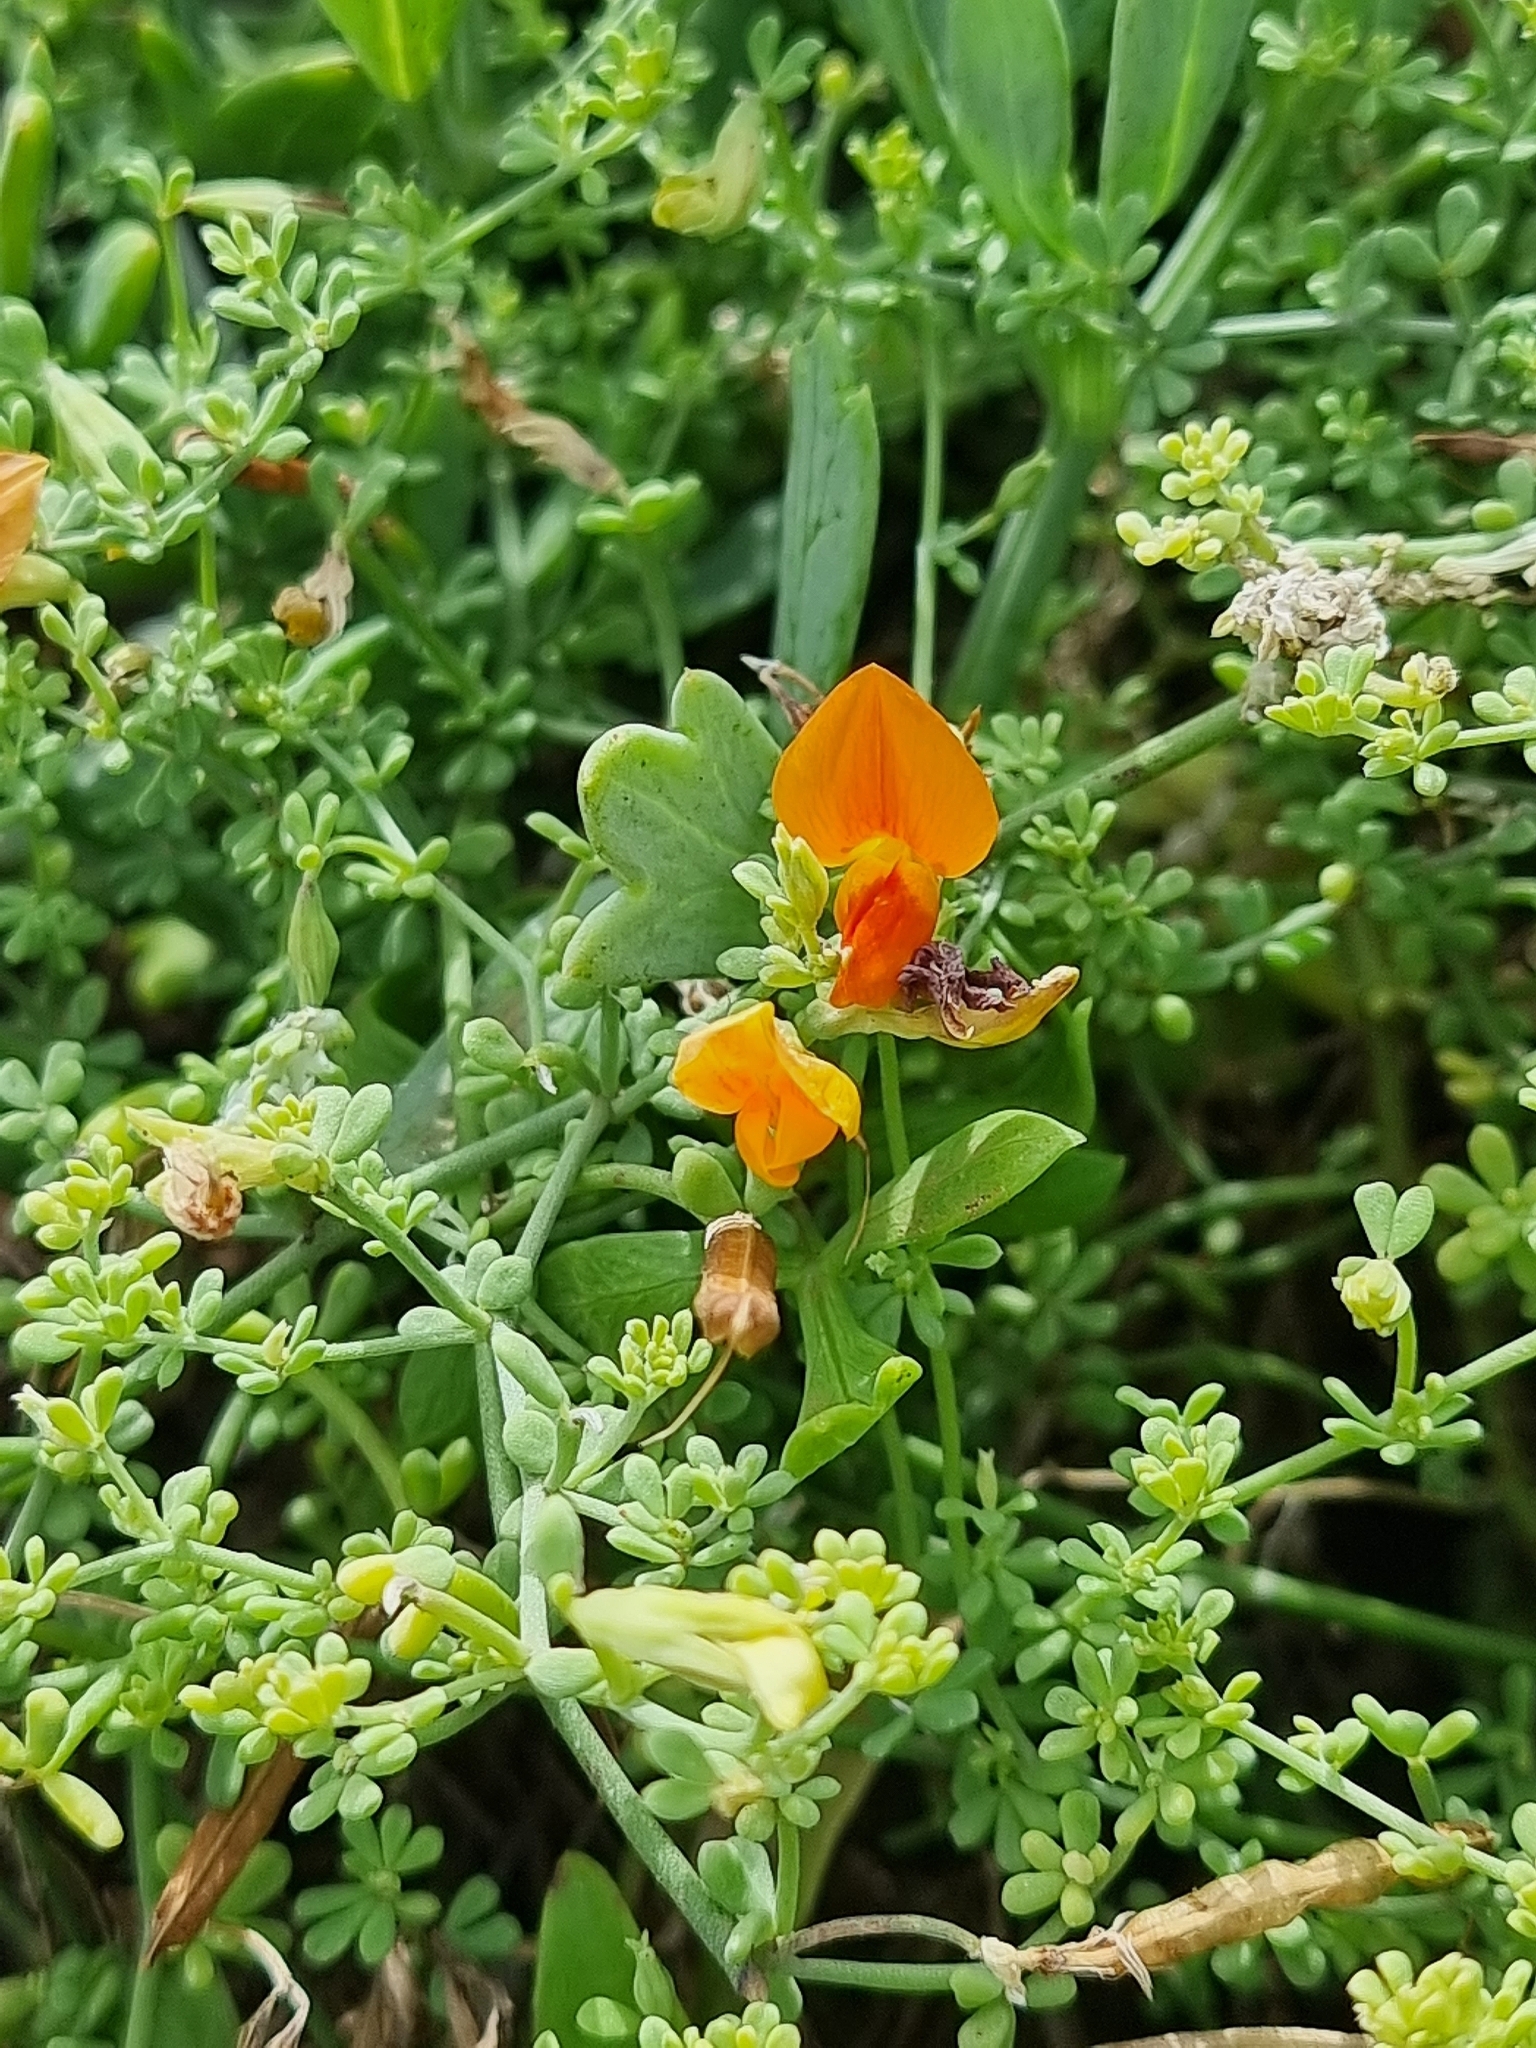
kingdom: Plantae
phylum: Tracheophyta
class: Magnoliopsida
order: Fabales
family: Fabaceae
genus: Lotus
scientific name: Lotus glaucus
